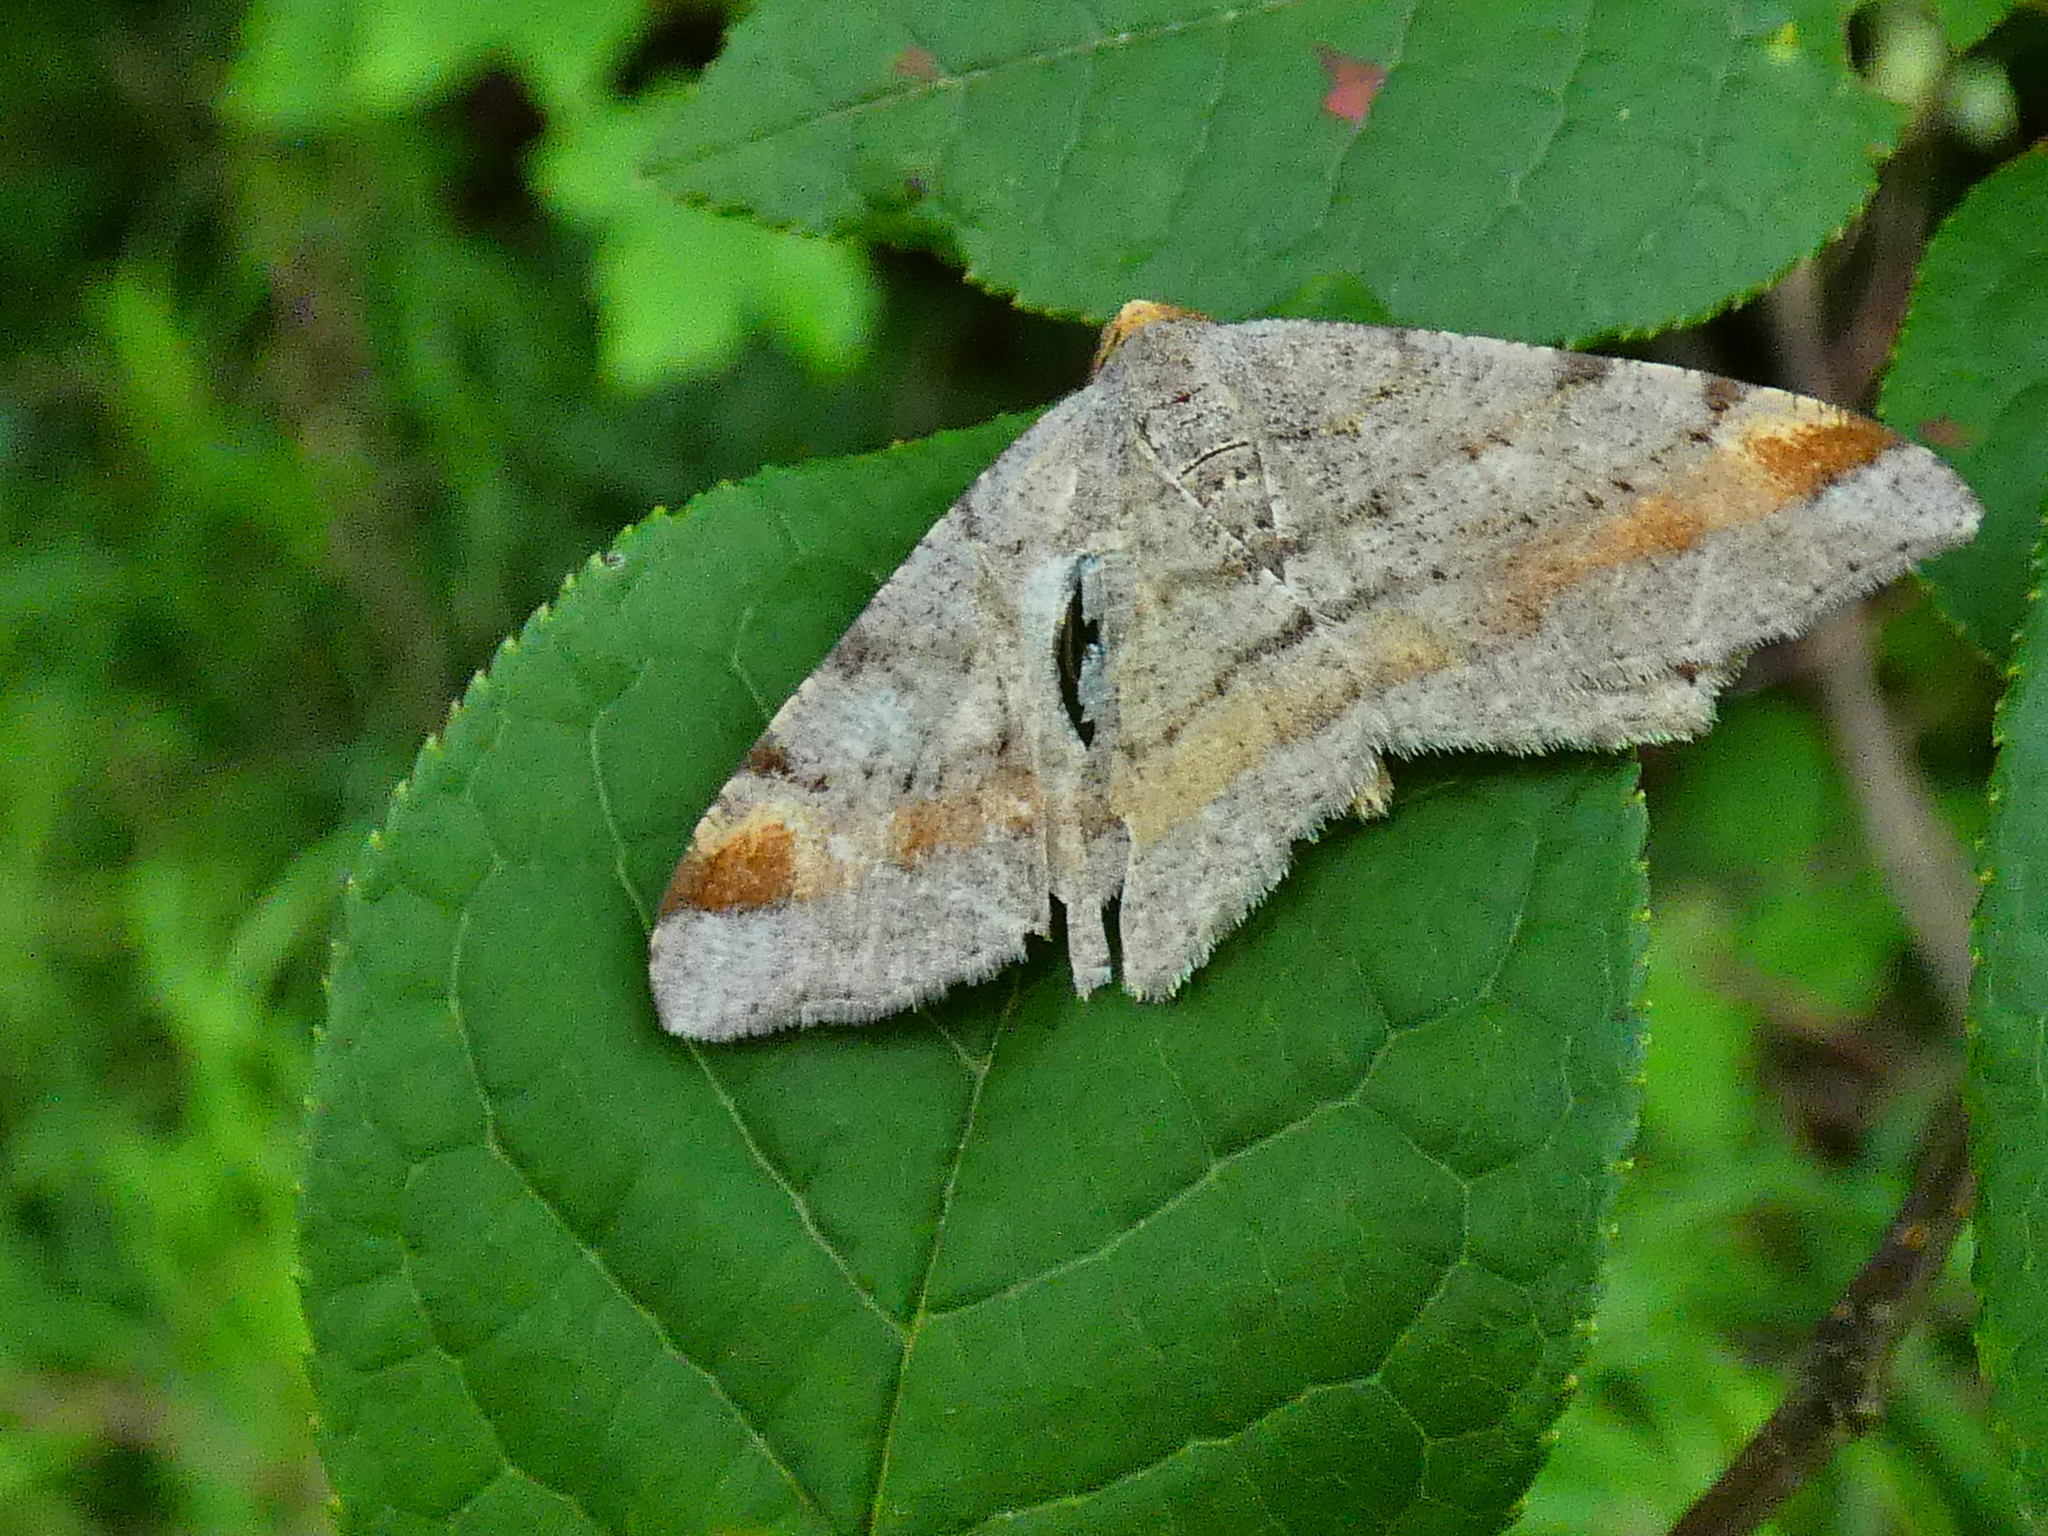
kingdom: Animalia
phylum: Arthropoda
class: Insecta
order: Lepidoptera
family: Geometridae
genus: Macaria
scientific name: Macaria liturata
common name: Tawny-barred angle
